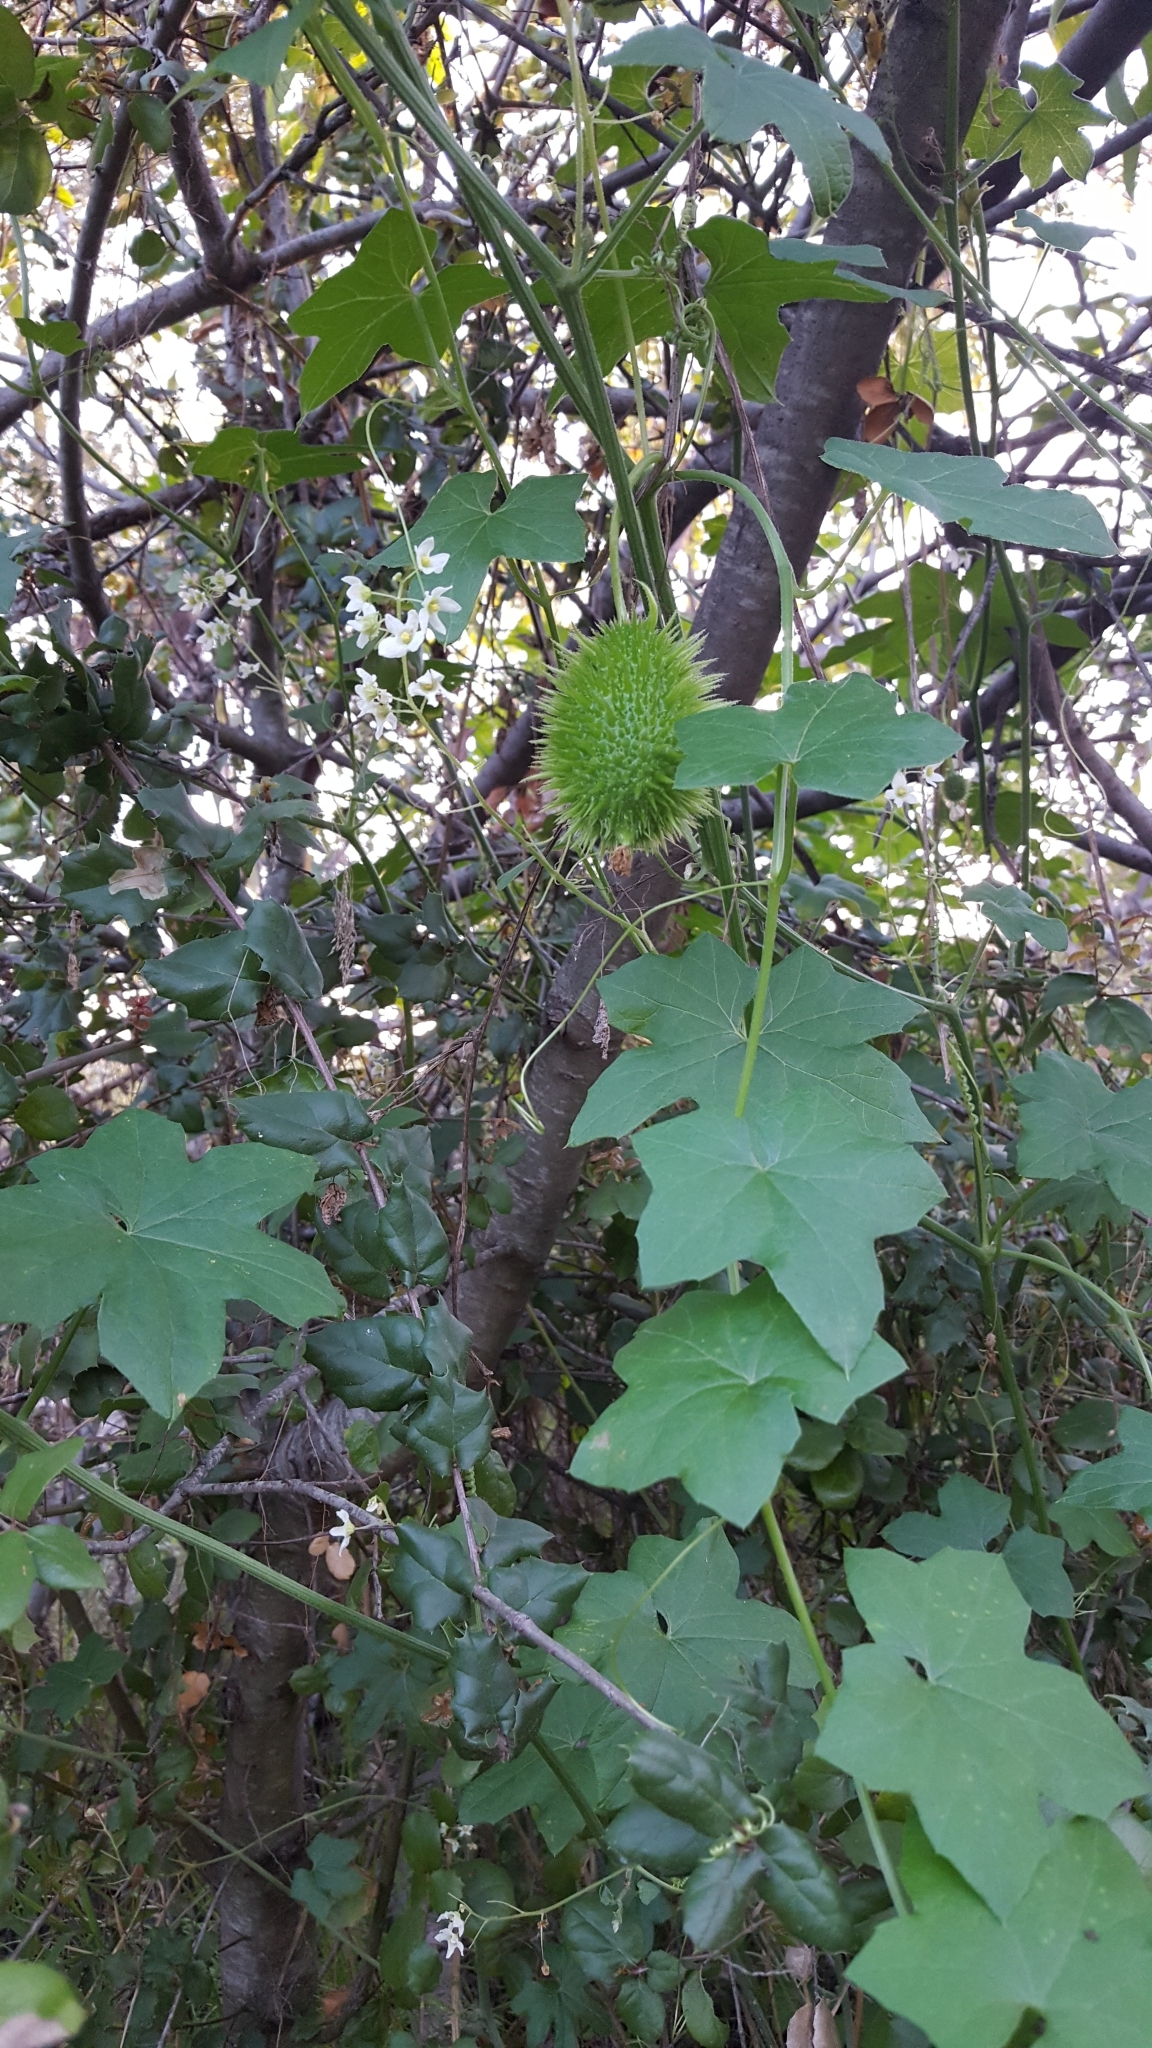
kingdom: Plantae
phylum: Tracheophyta
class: Magnoliopsida
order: Cucurbitales
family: Cucurbitaceae
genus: Marah
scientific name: Marah macrocarpa
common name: Cucamonga manroot
